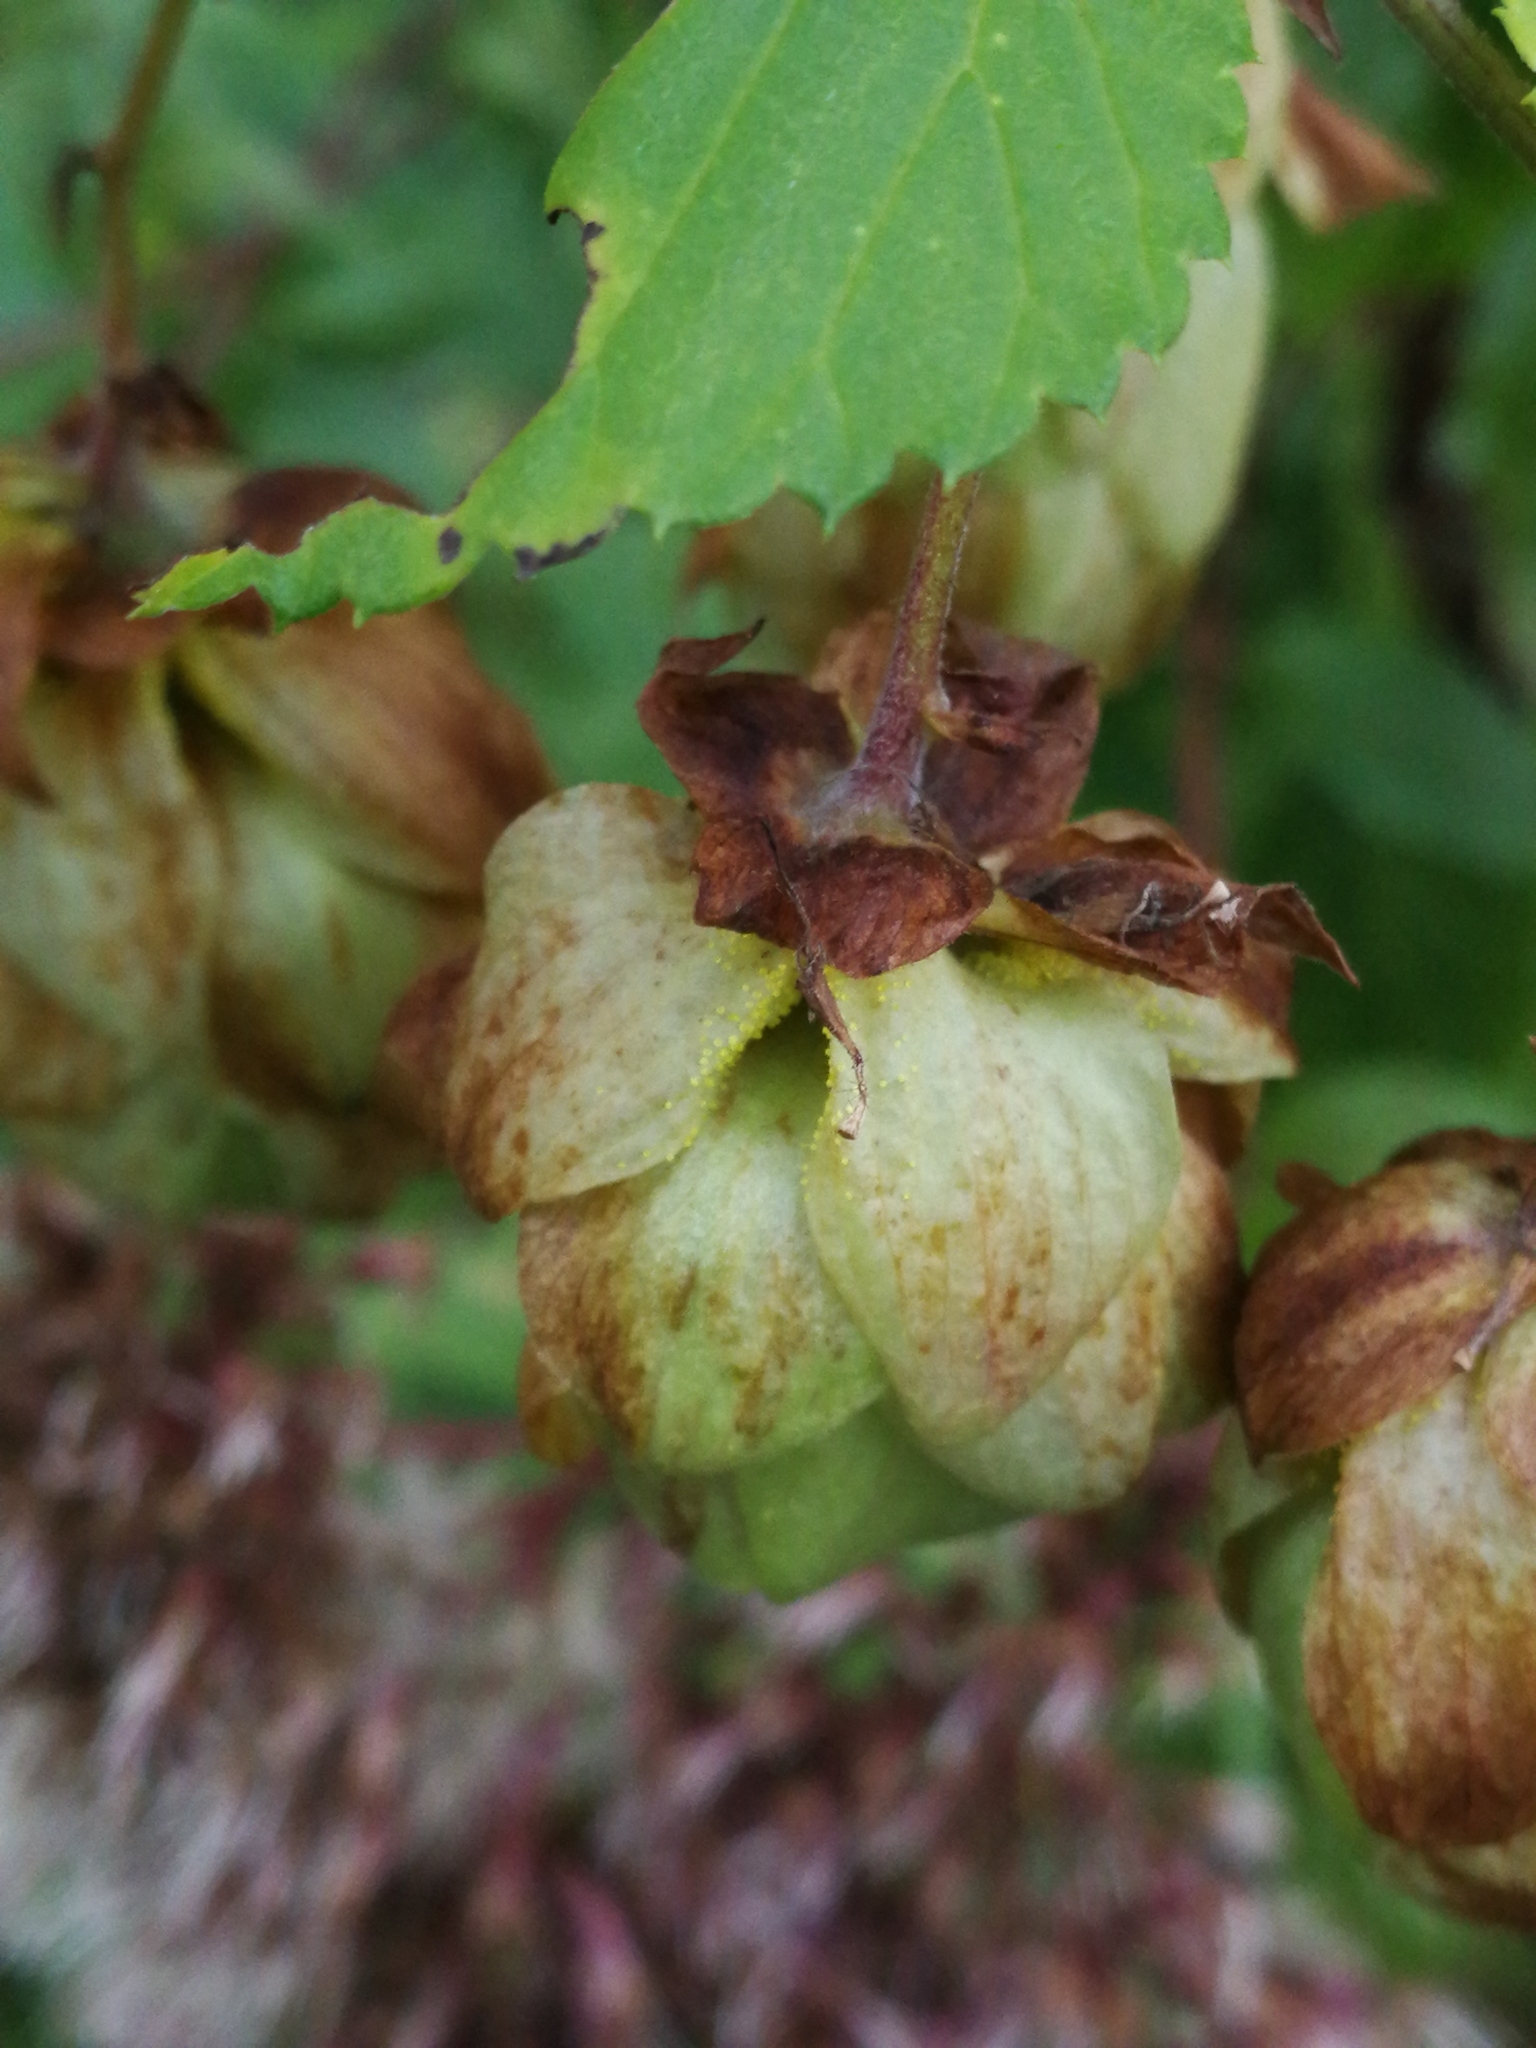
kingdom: Plantae
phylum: Tracheophyta
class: Magnoliopsida
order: Rosales
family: Cannabaceae
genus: Humulus
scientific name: Humulus lupulus
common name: Hop
